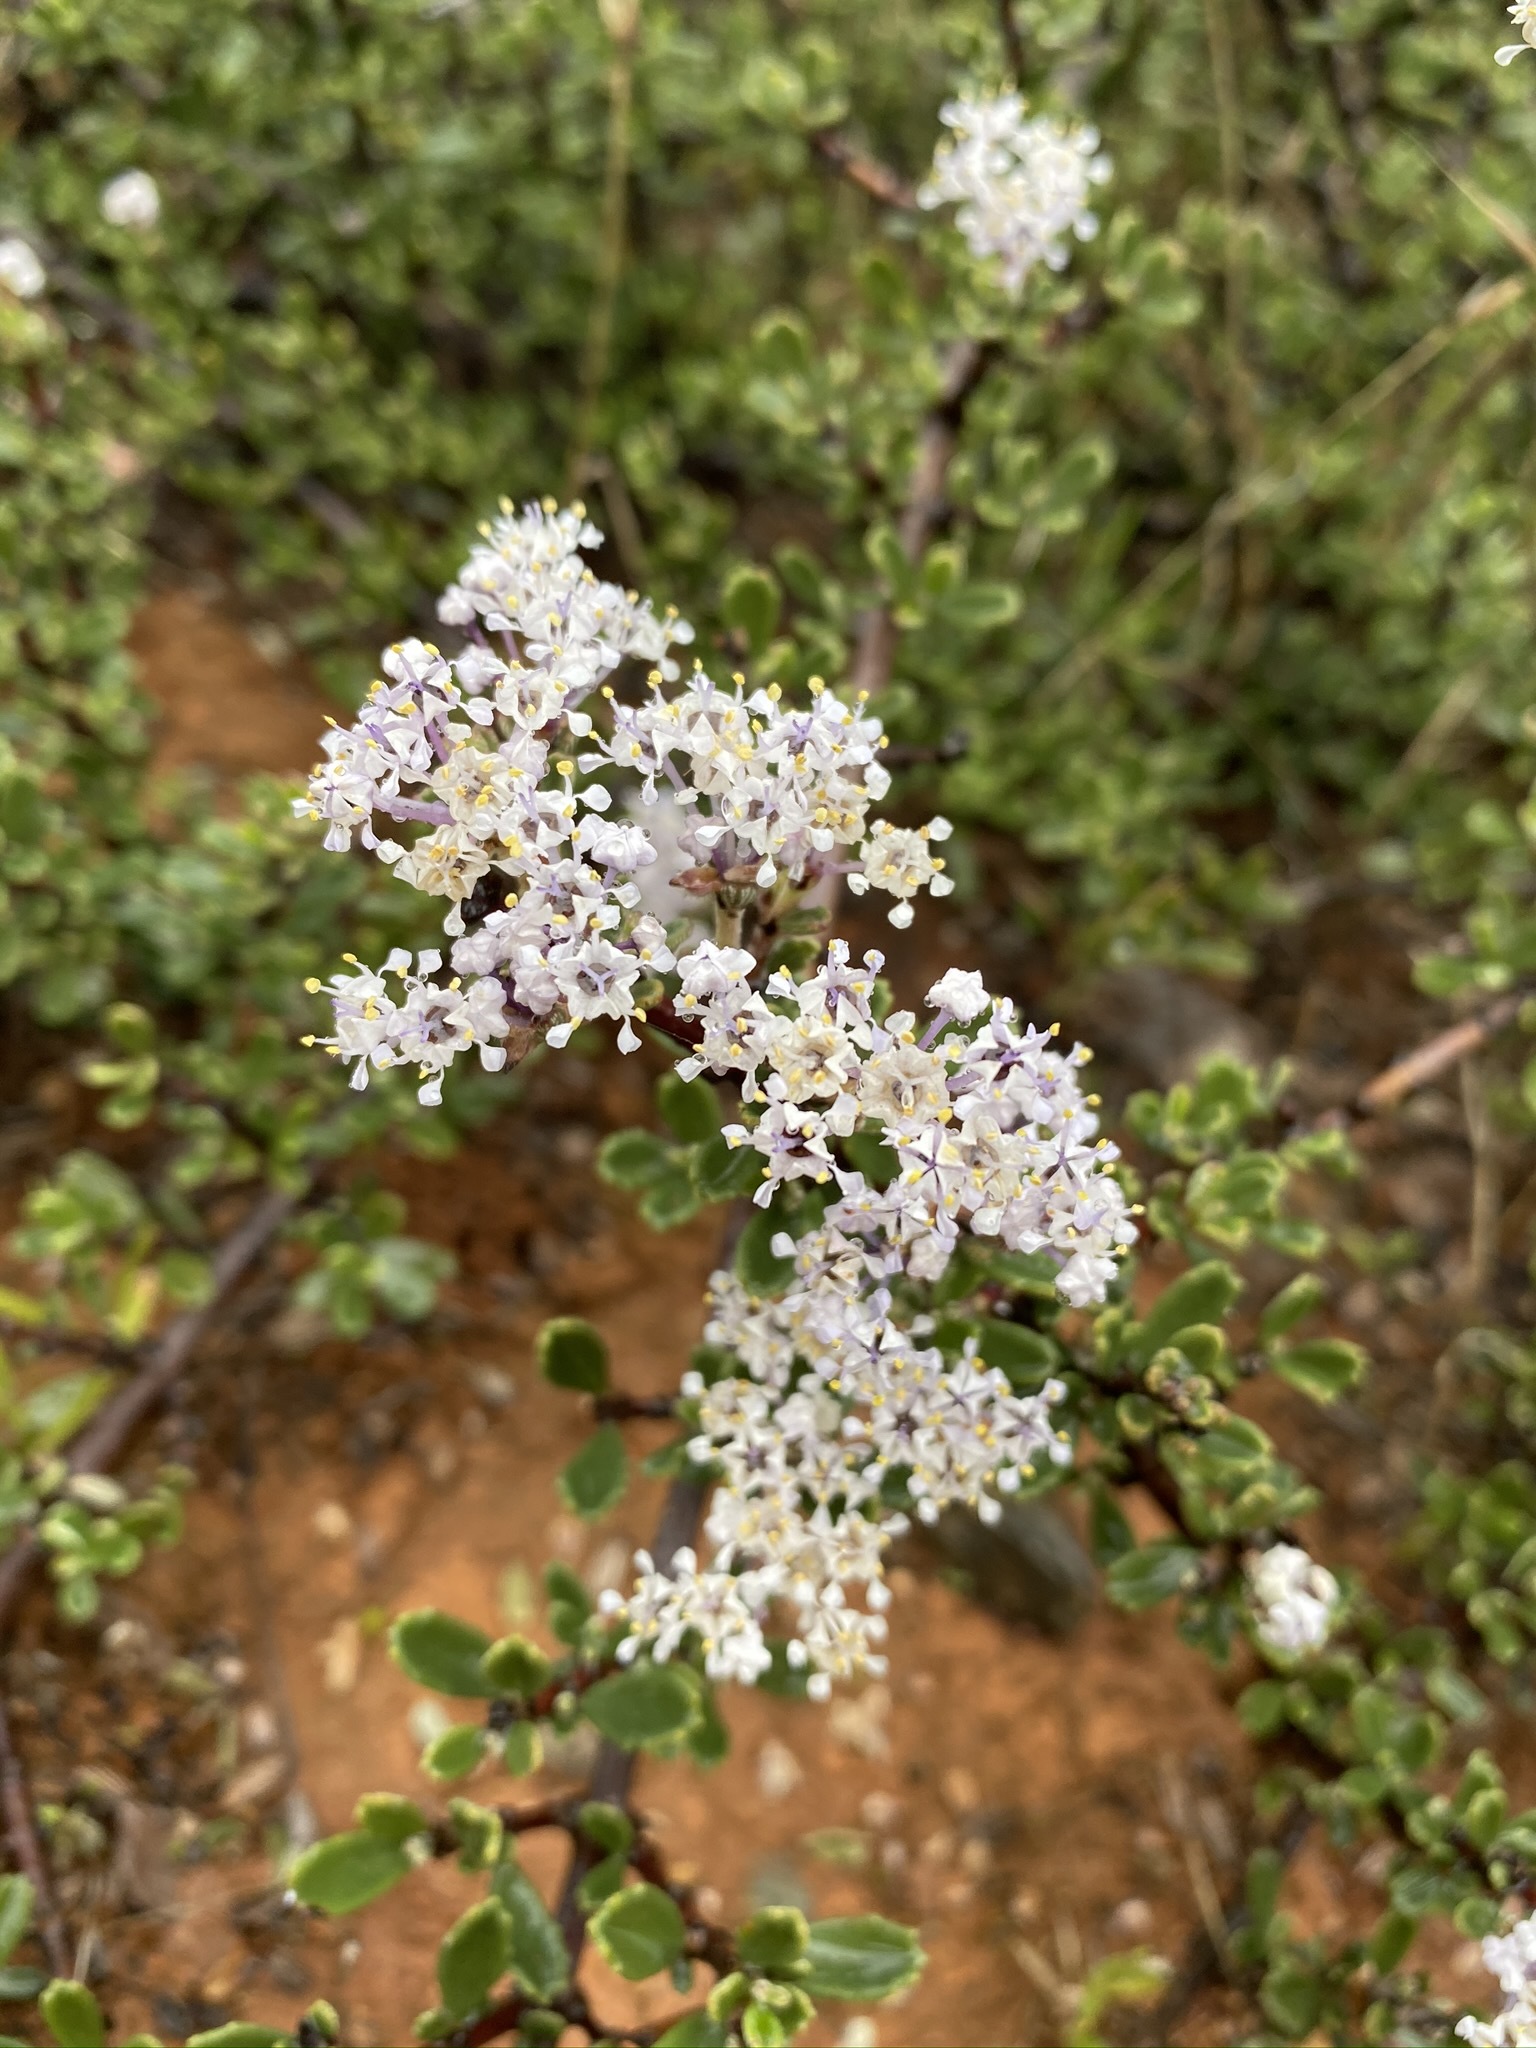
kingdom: Plantae
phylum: Tracheophyta
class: Magnoliopsida
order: Rosales
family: Rhamnaceae
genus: Ceanothus
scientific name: Ceanothus roderickii
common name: Pine hill ceanothus
